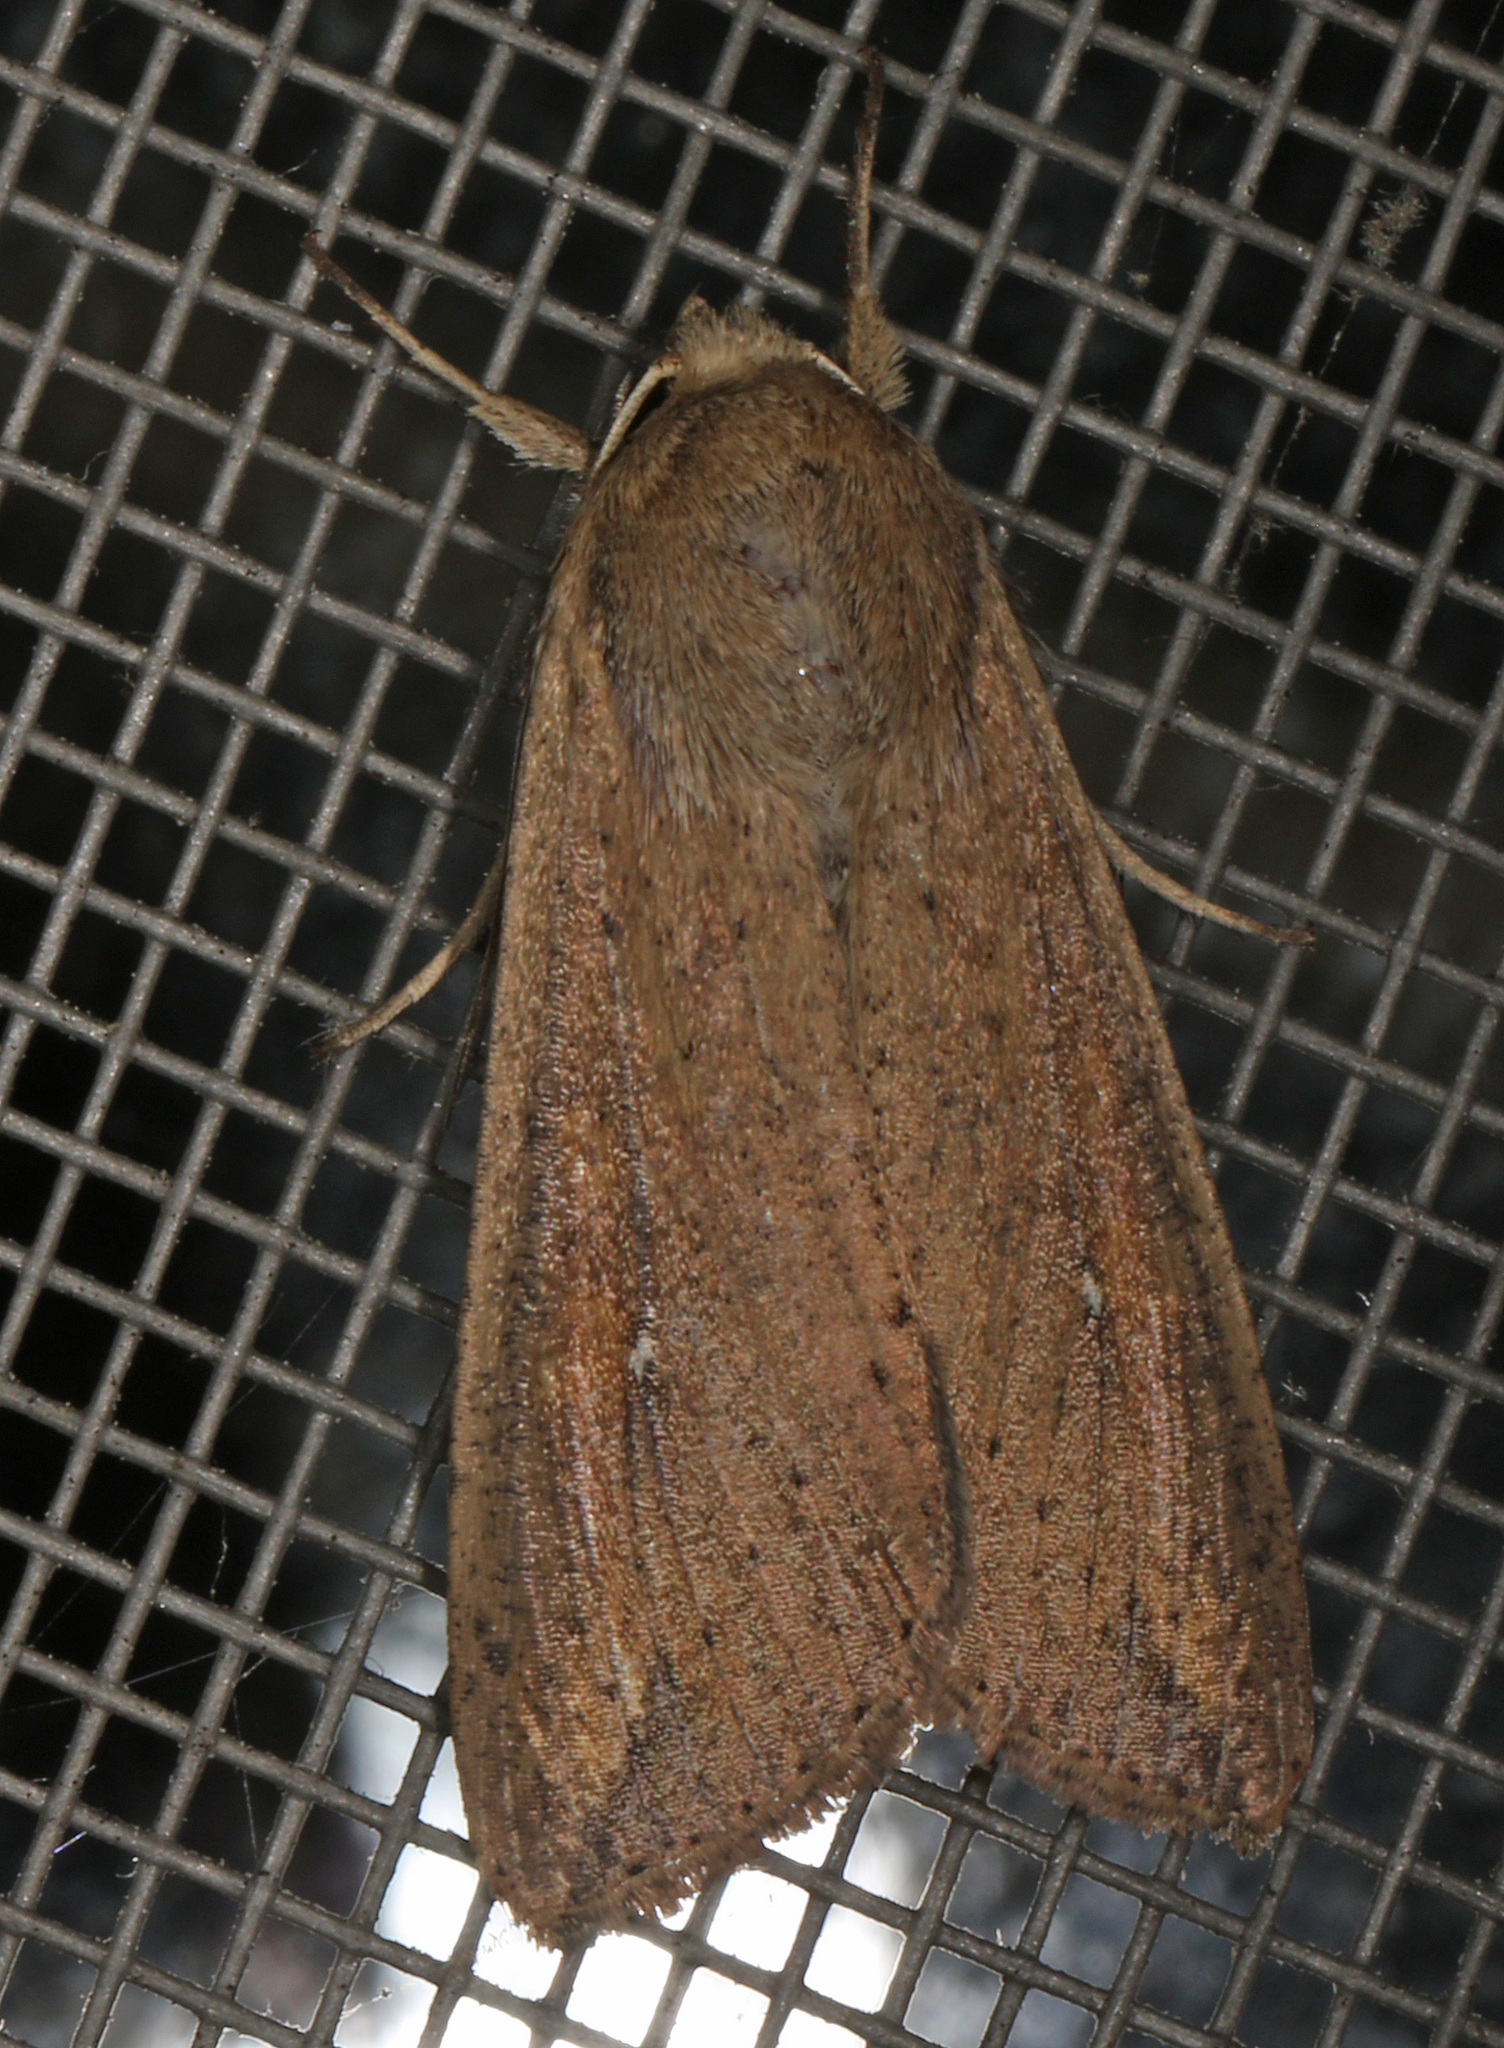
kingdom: Animalia
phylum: Arthropoda
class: Insecta
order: Lepidoptera
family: Noctuidae
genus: Mythimna
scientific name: Mythimna unipuncta
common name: White-speck
